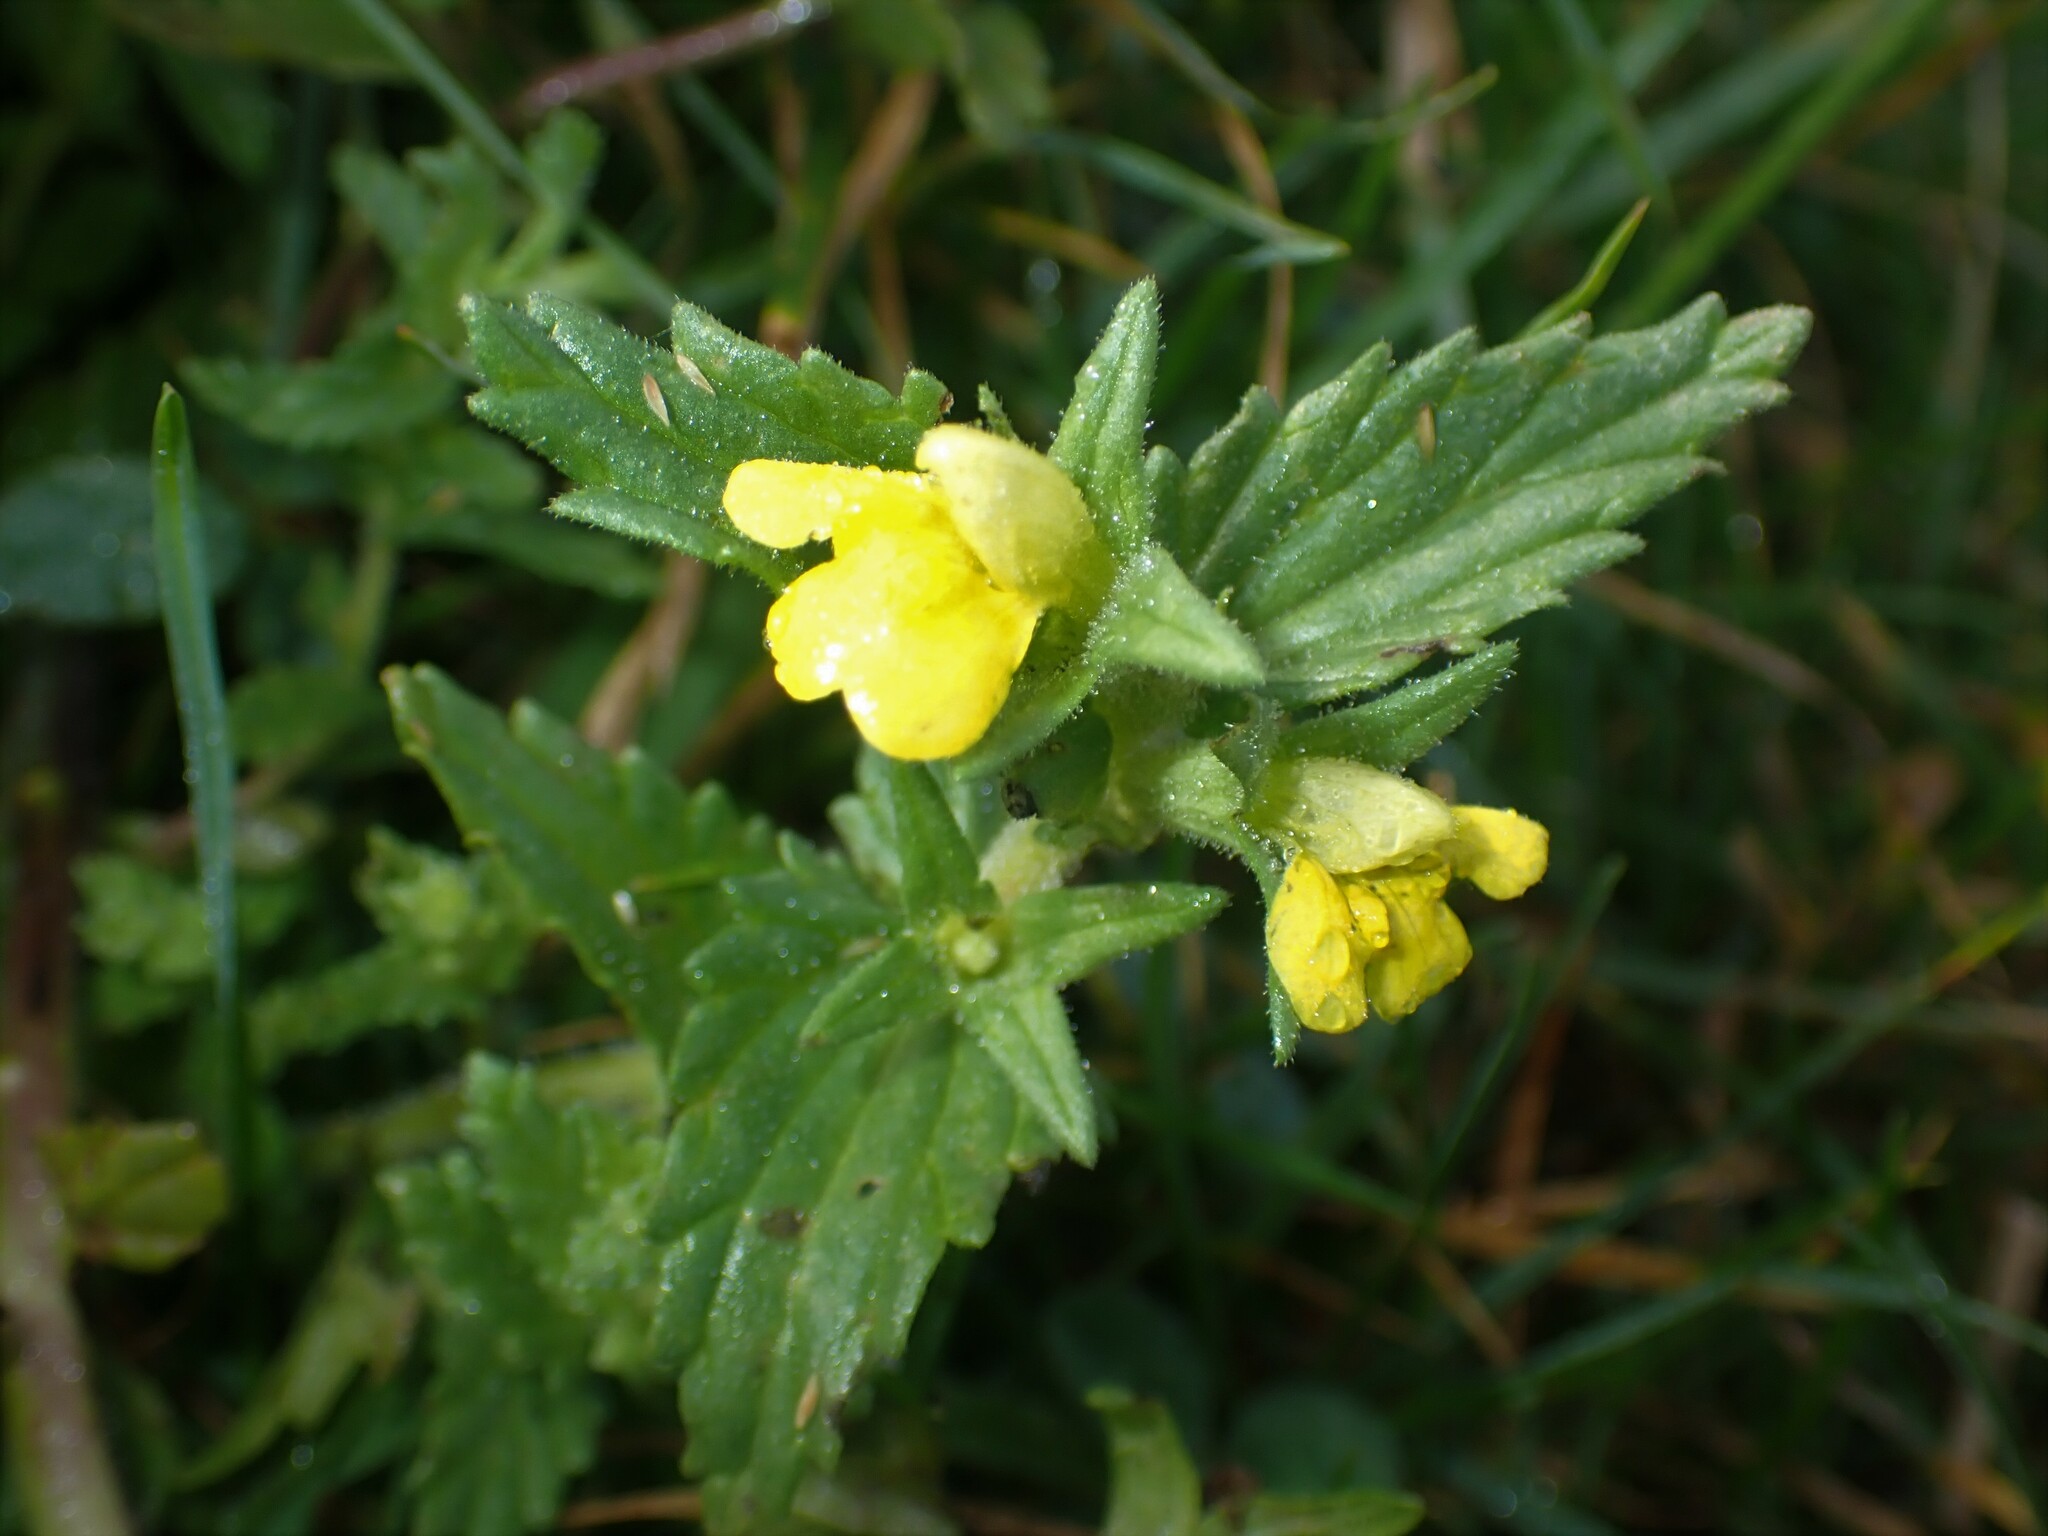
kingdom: Plantae
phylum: Tracheophyta
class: Magnoliopsida
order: Lamiales
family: Orobanchaceae
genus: Bellardia
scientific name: Bellardia viscosa
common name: Sticky parentucellia
